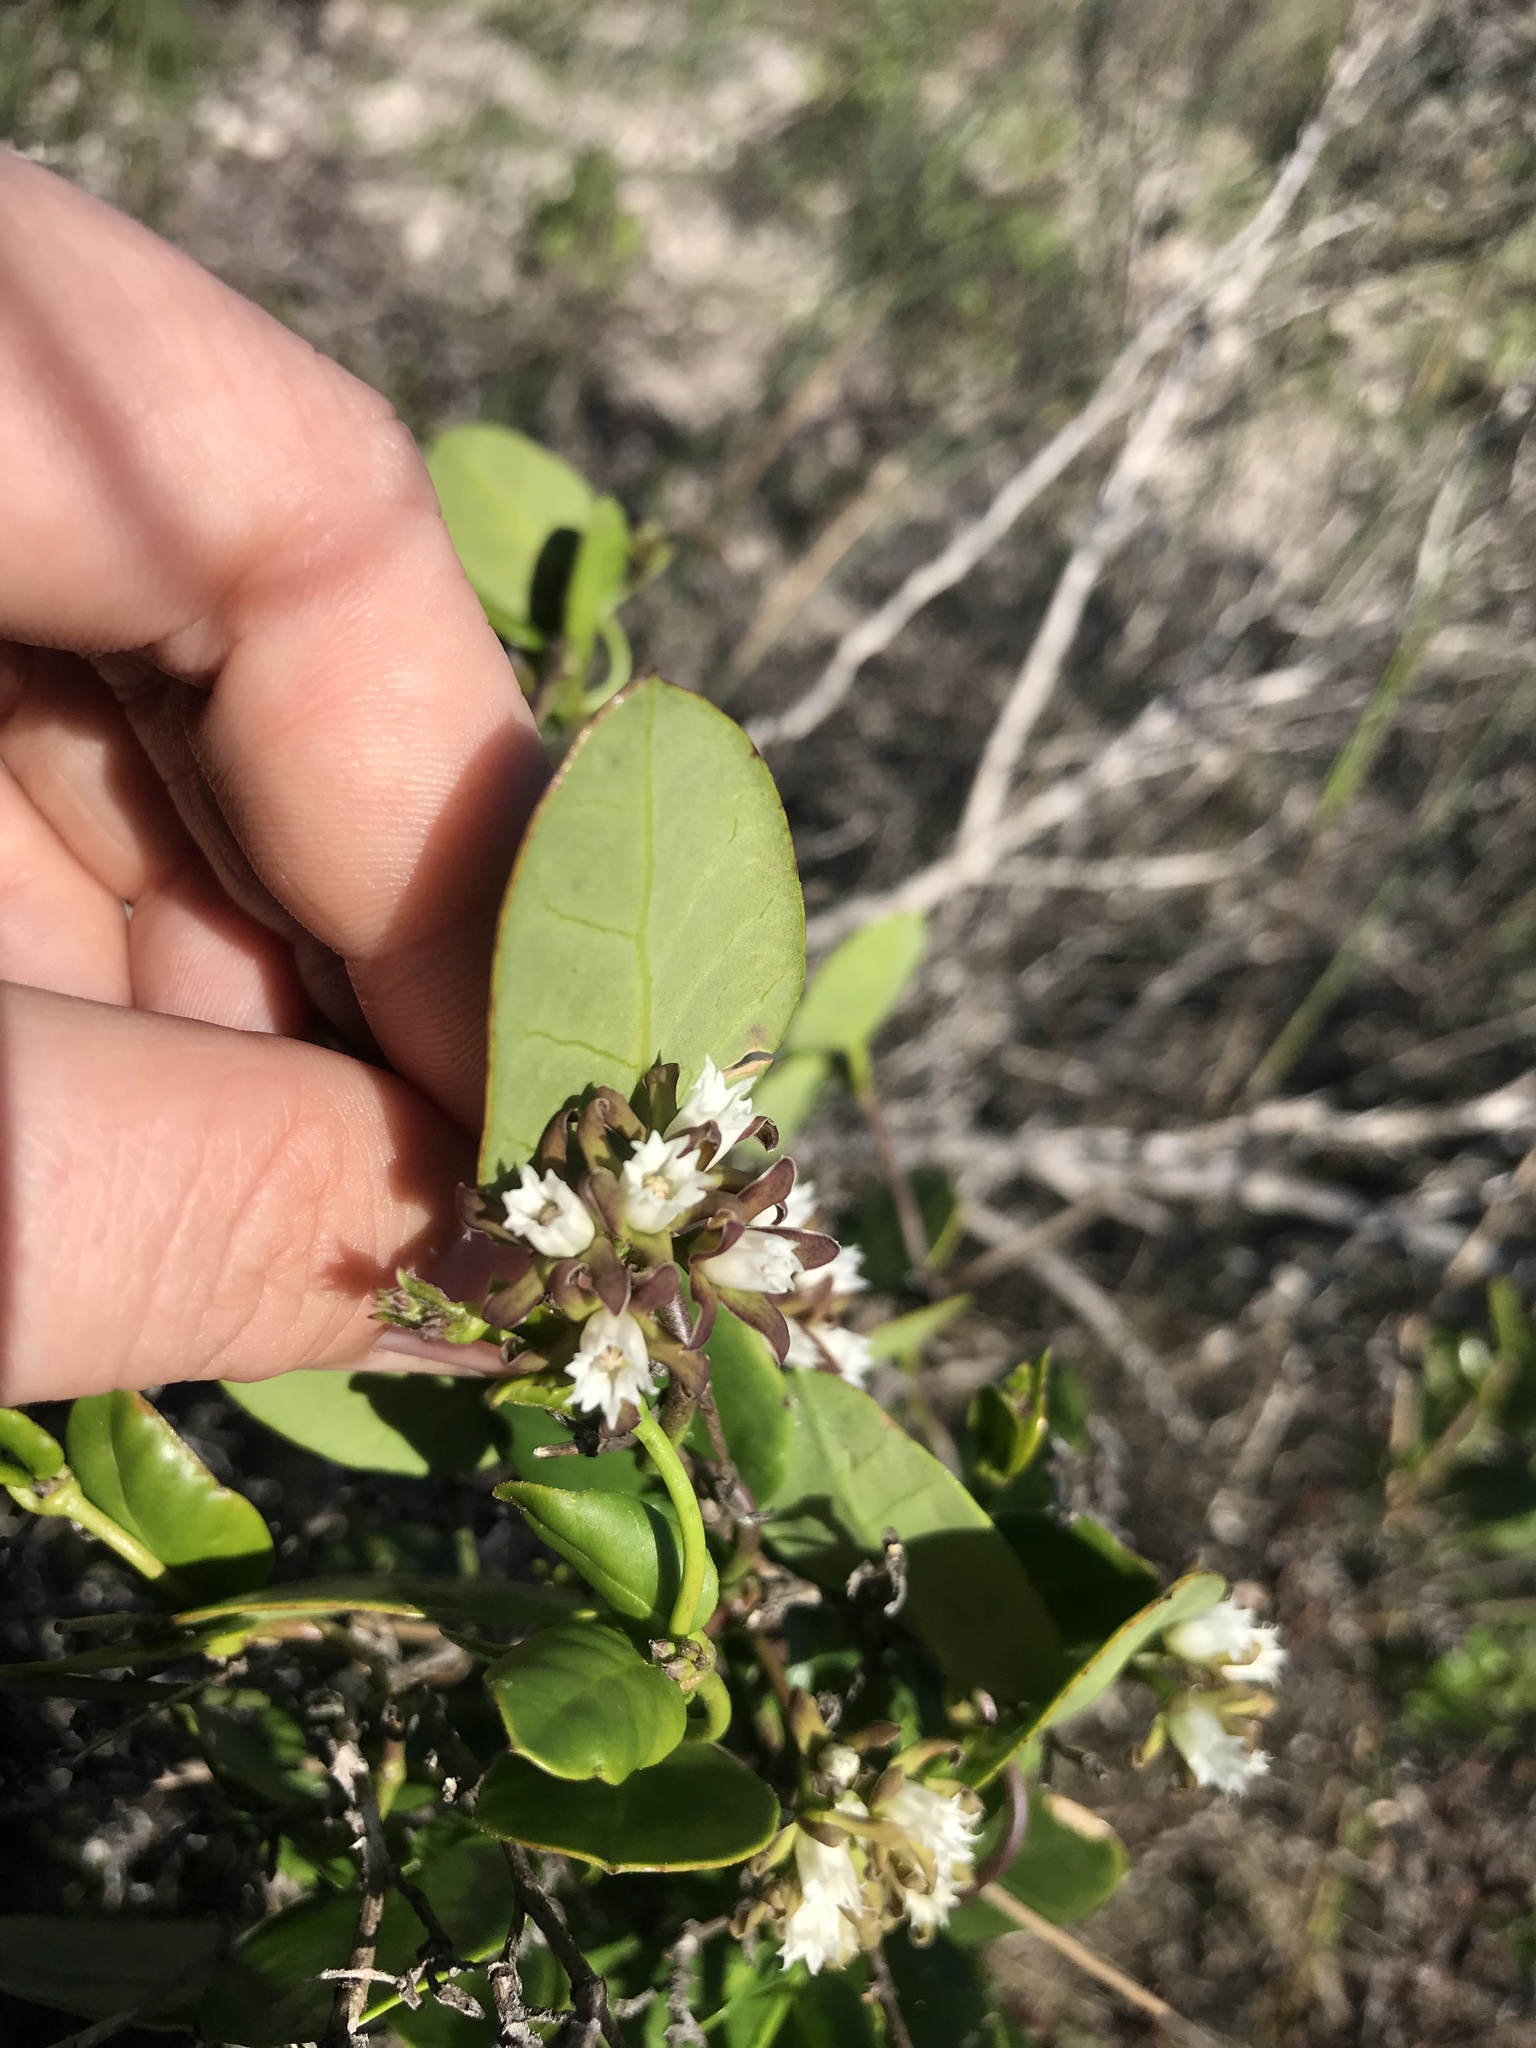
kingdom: Plantae
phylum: Tracheophyta
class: Magnoliopsida
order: Gentianales
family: Apocynaceae
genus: Cynanchum
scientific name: Cynanchum africanum
